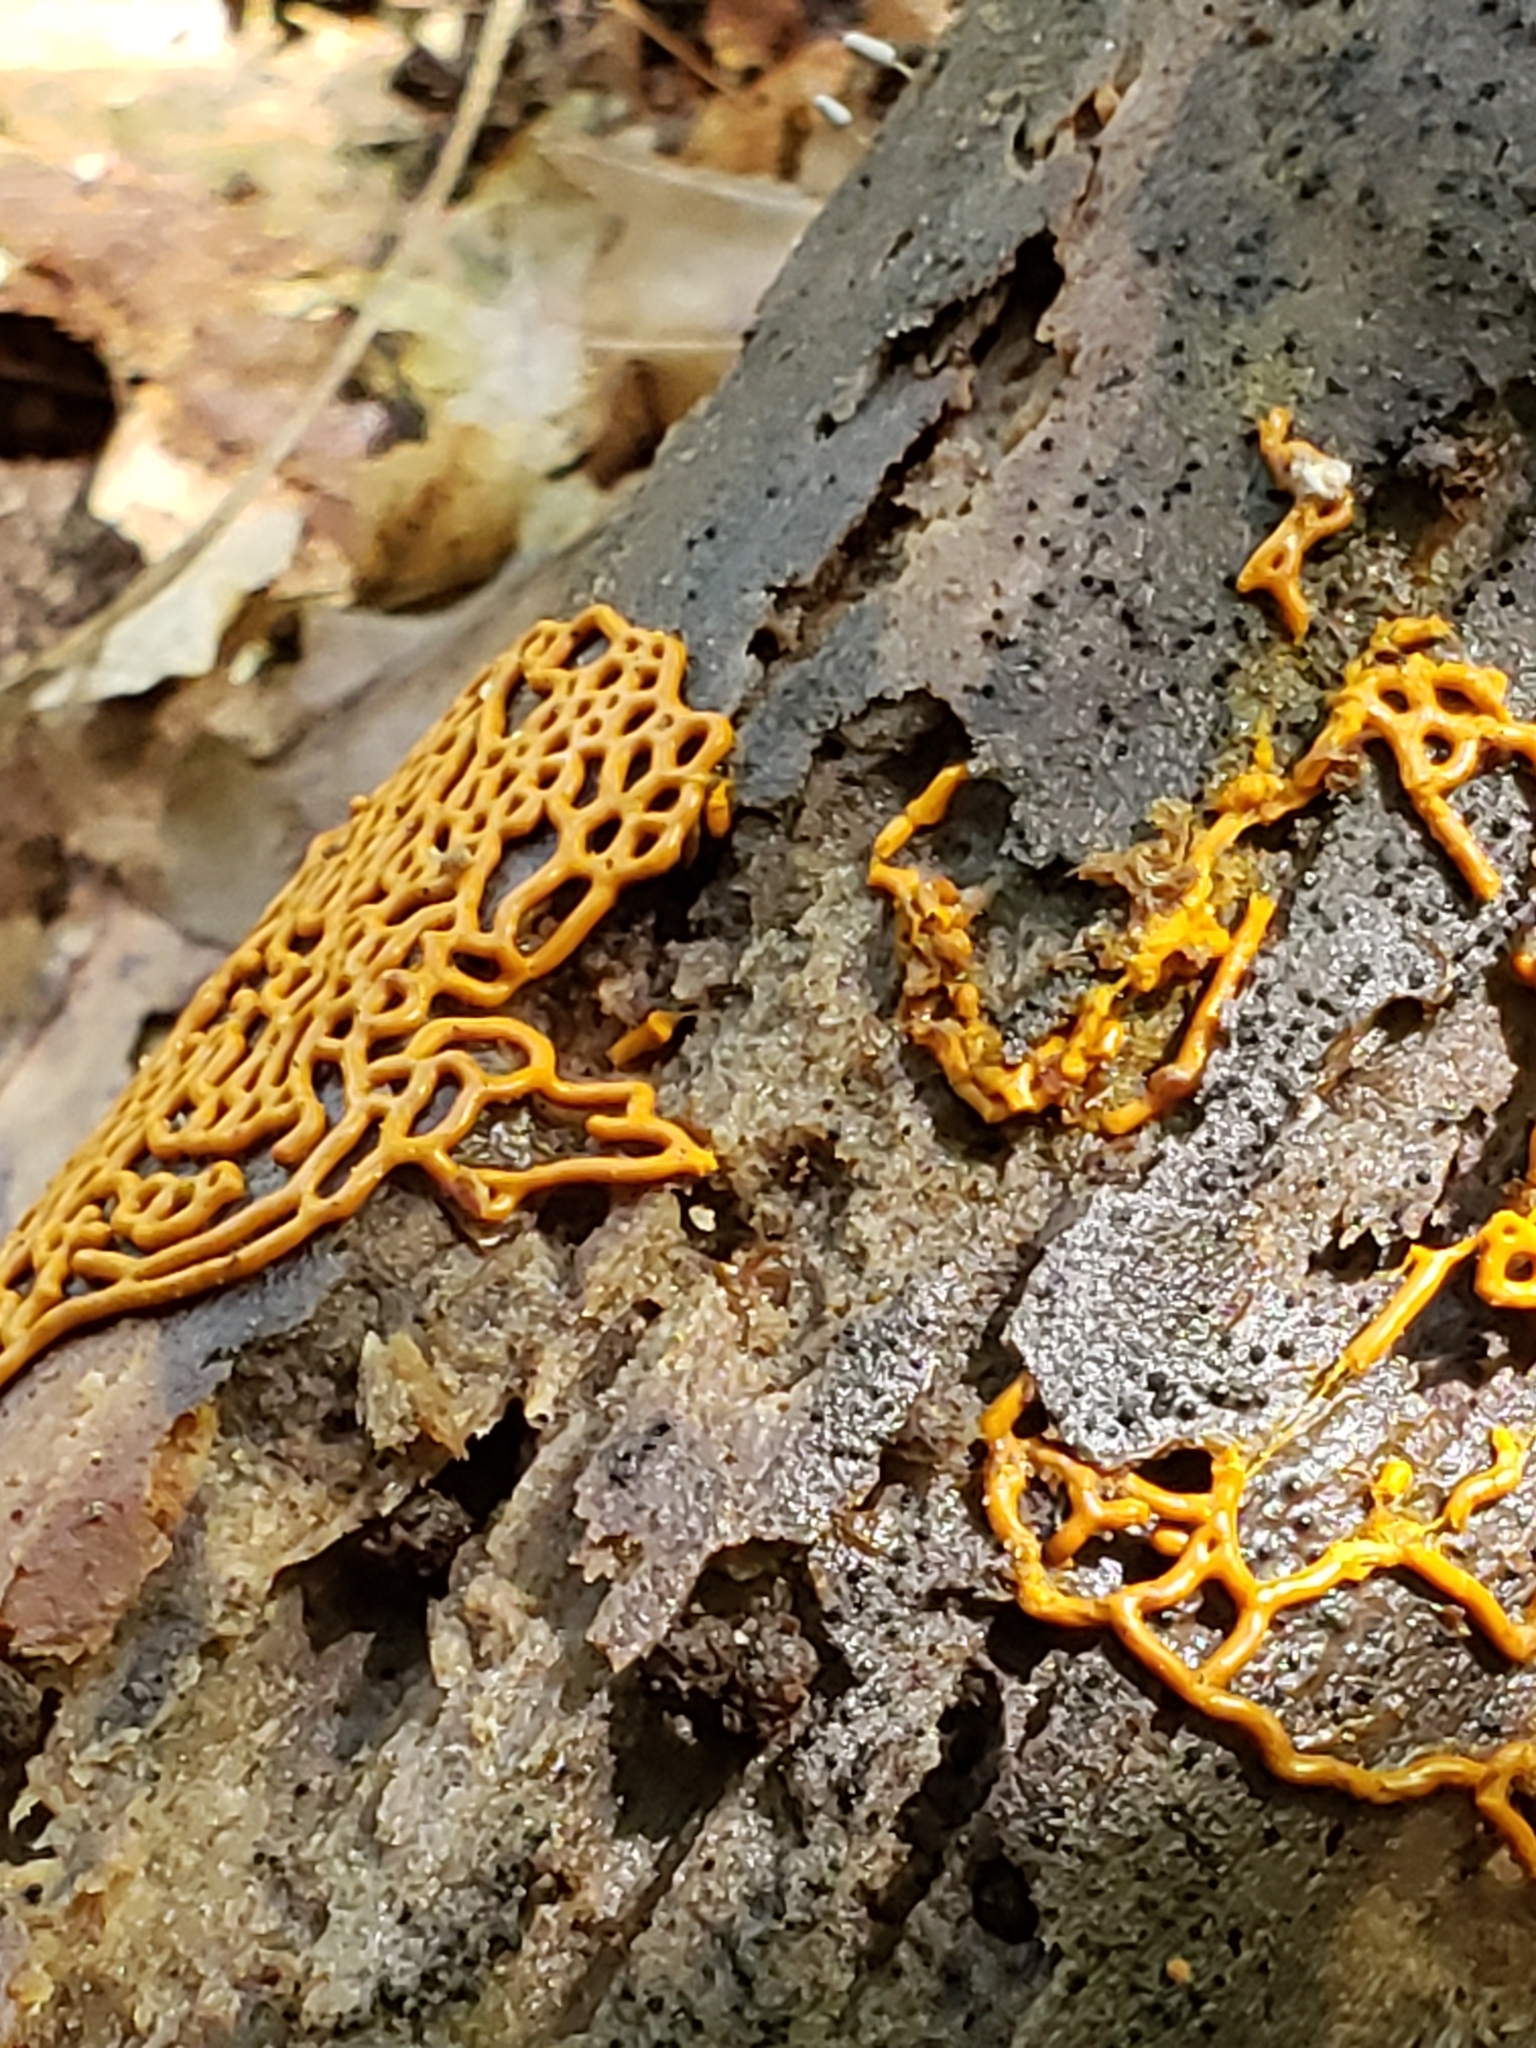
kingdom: Protozoa
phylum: Mycetozoa
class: Myxomycetes
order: Trichiales
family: Arcyriaceae
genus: Hemitrichia
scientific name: Hemitrichia serpula
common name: Pretzel slime mold
